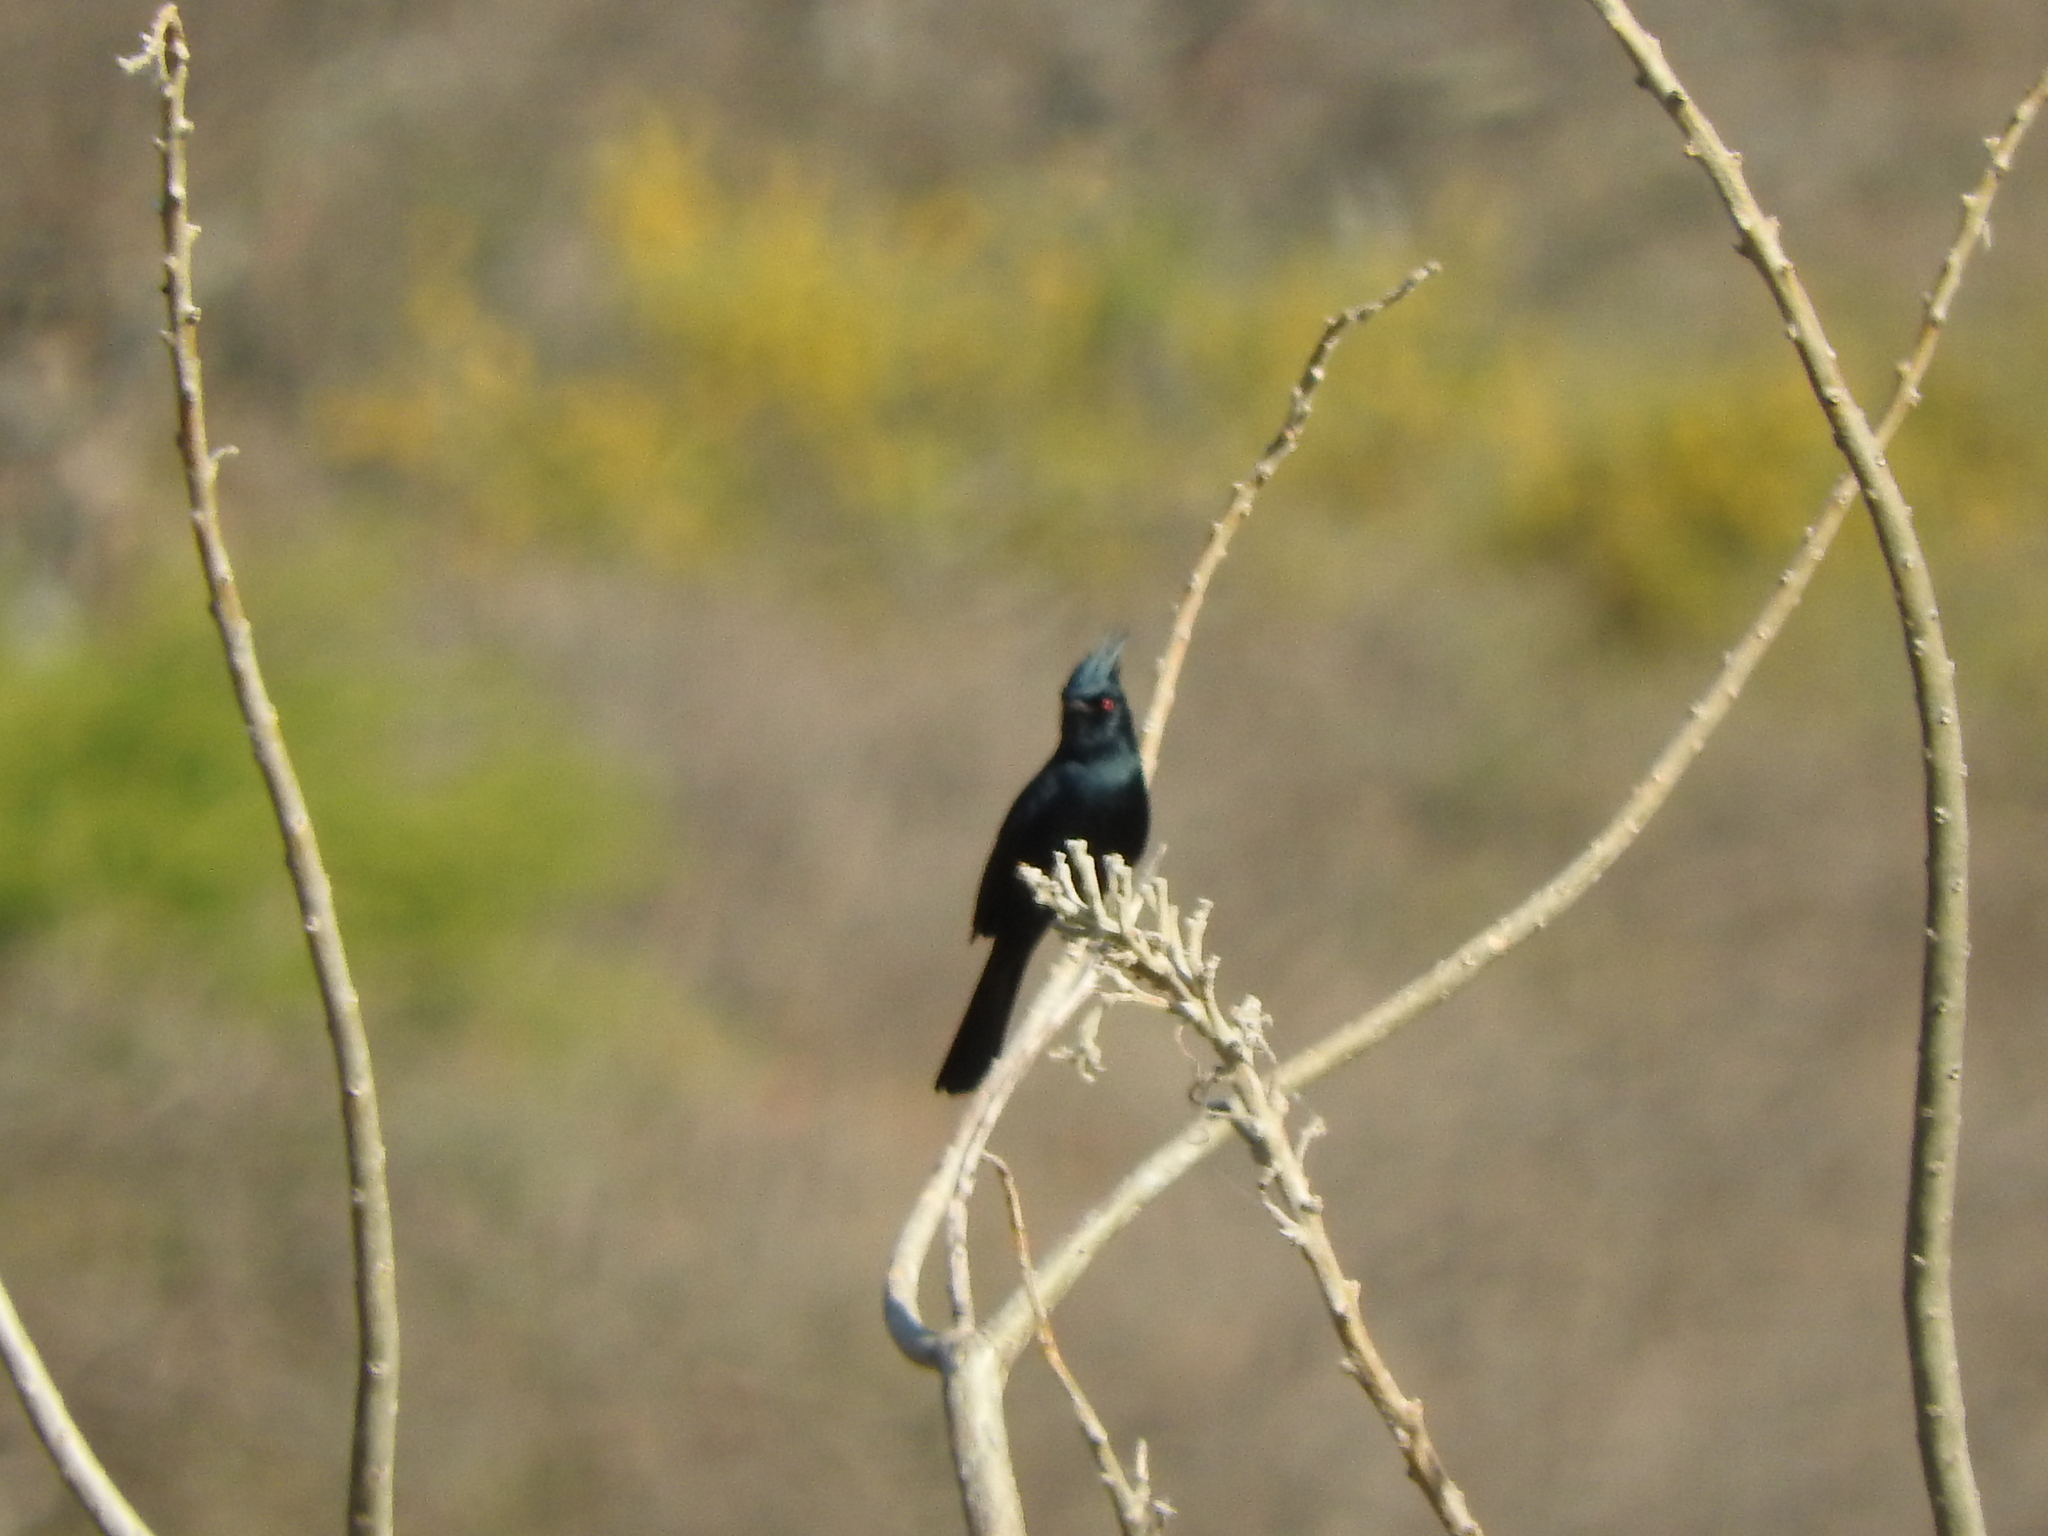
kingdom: Animalia
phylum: Chordata
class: Aves
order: Passeriformes
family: Ptilogonatidae
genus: Phainopepla
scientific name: Phainopepla nitens
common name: Phainopepla
